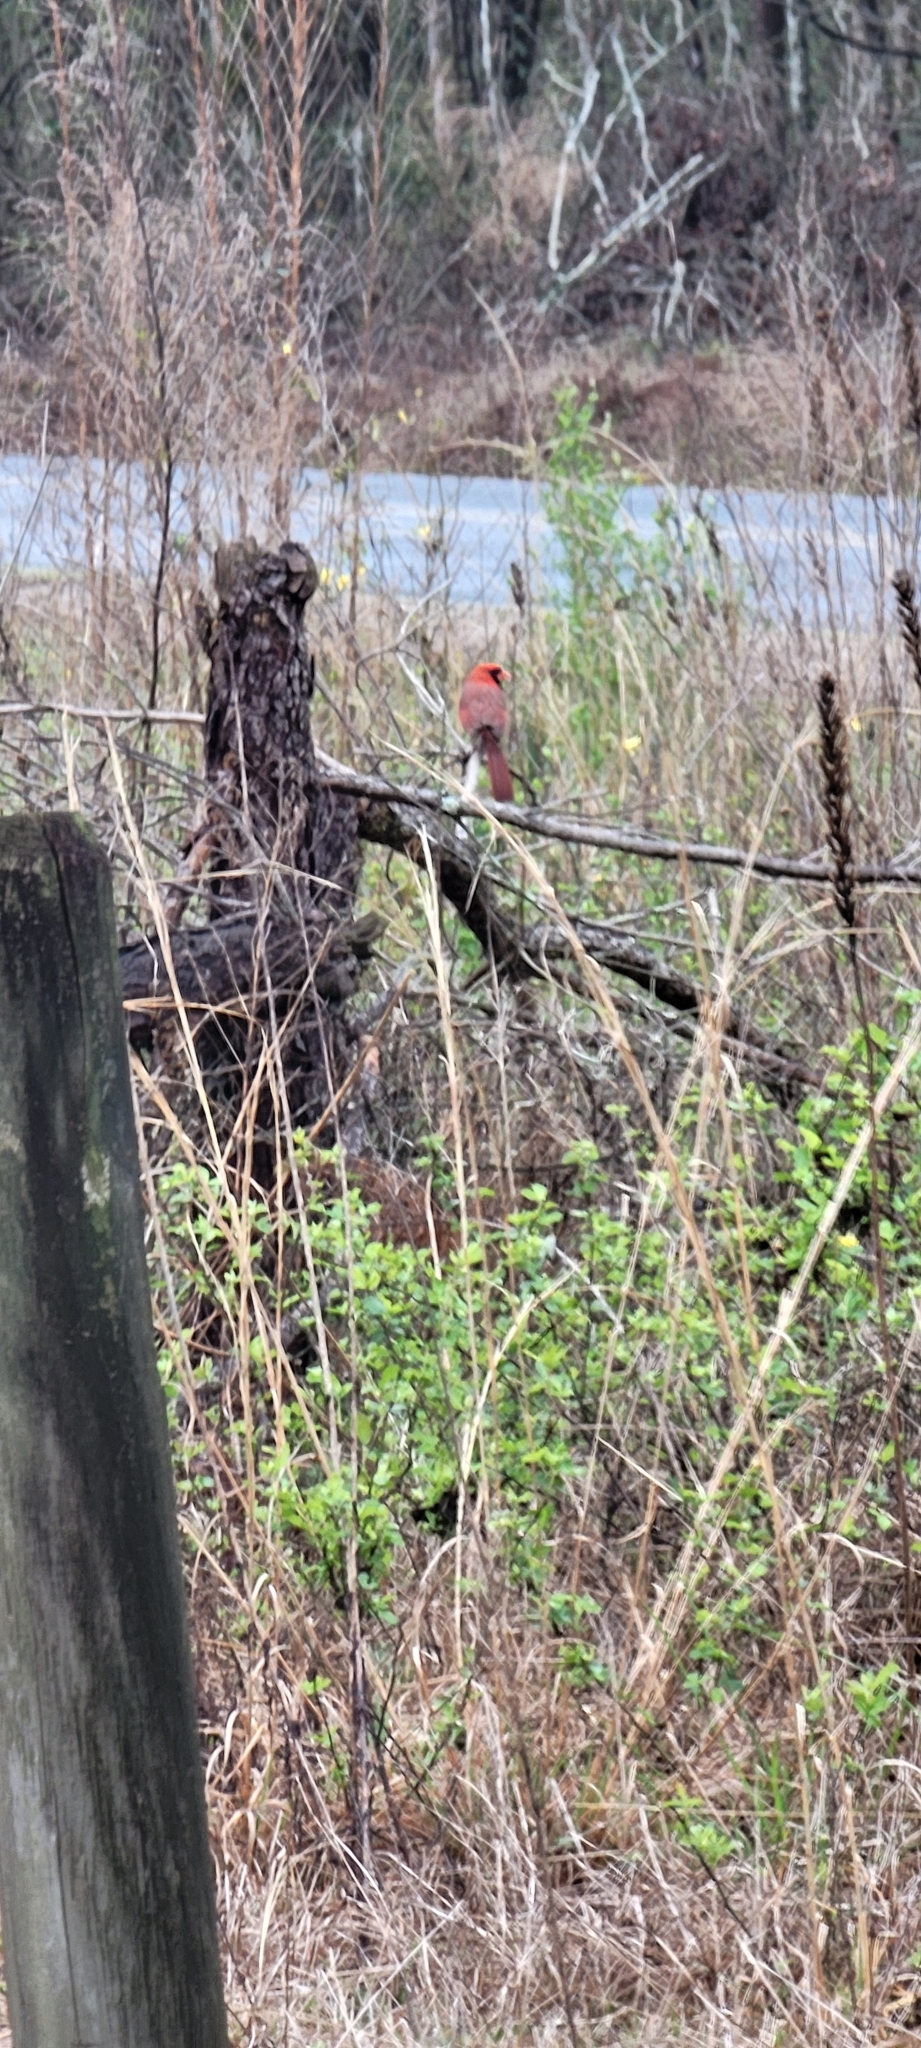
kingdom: Animalia
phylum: Chordata
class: Aves
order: Passeriformes
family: Cardinalidae
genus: Cardinalis
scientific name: Cardinalis cardinalis
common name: Northern cardinal
